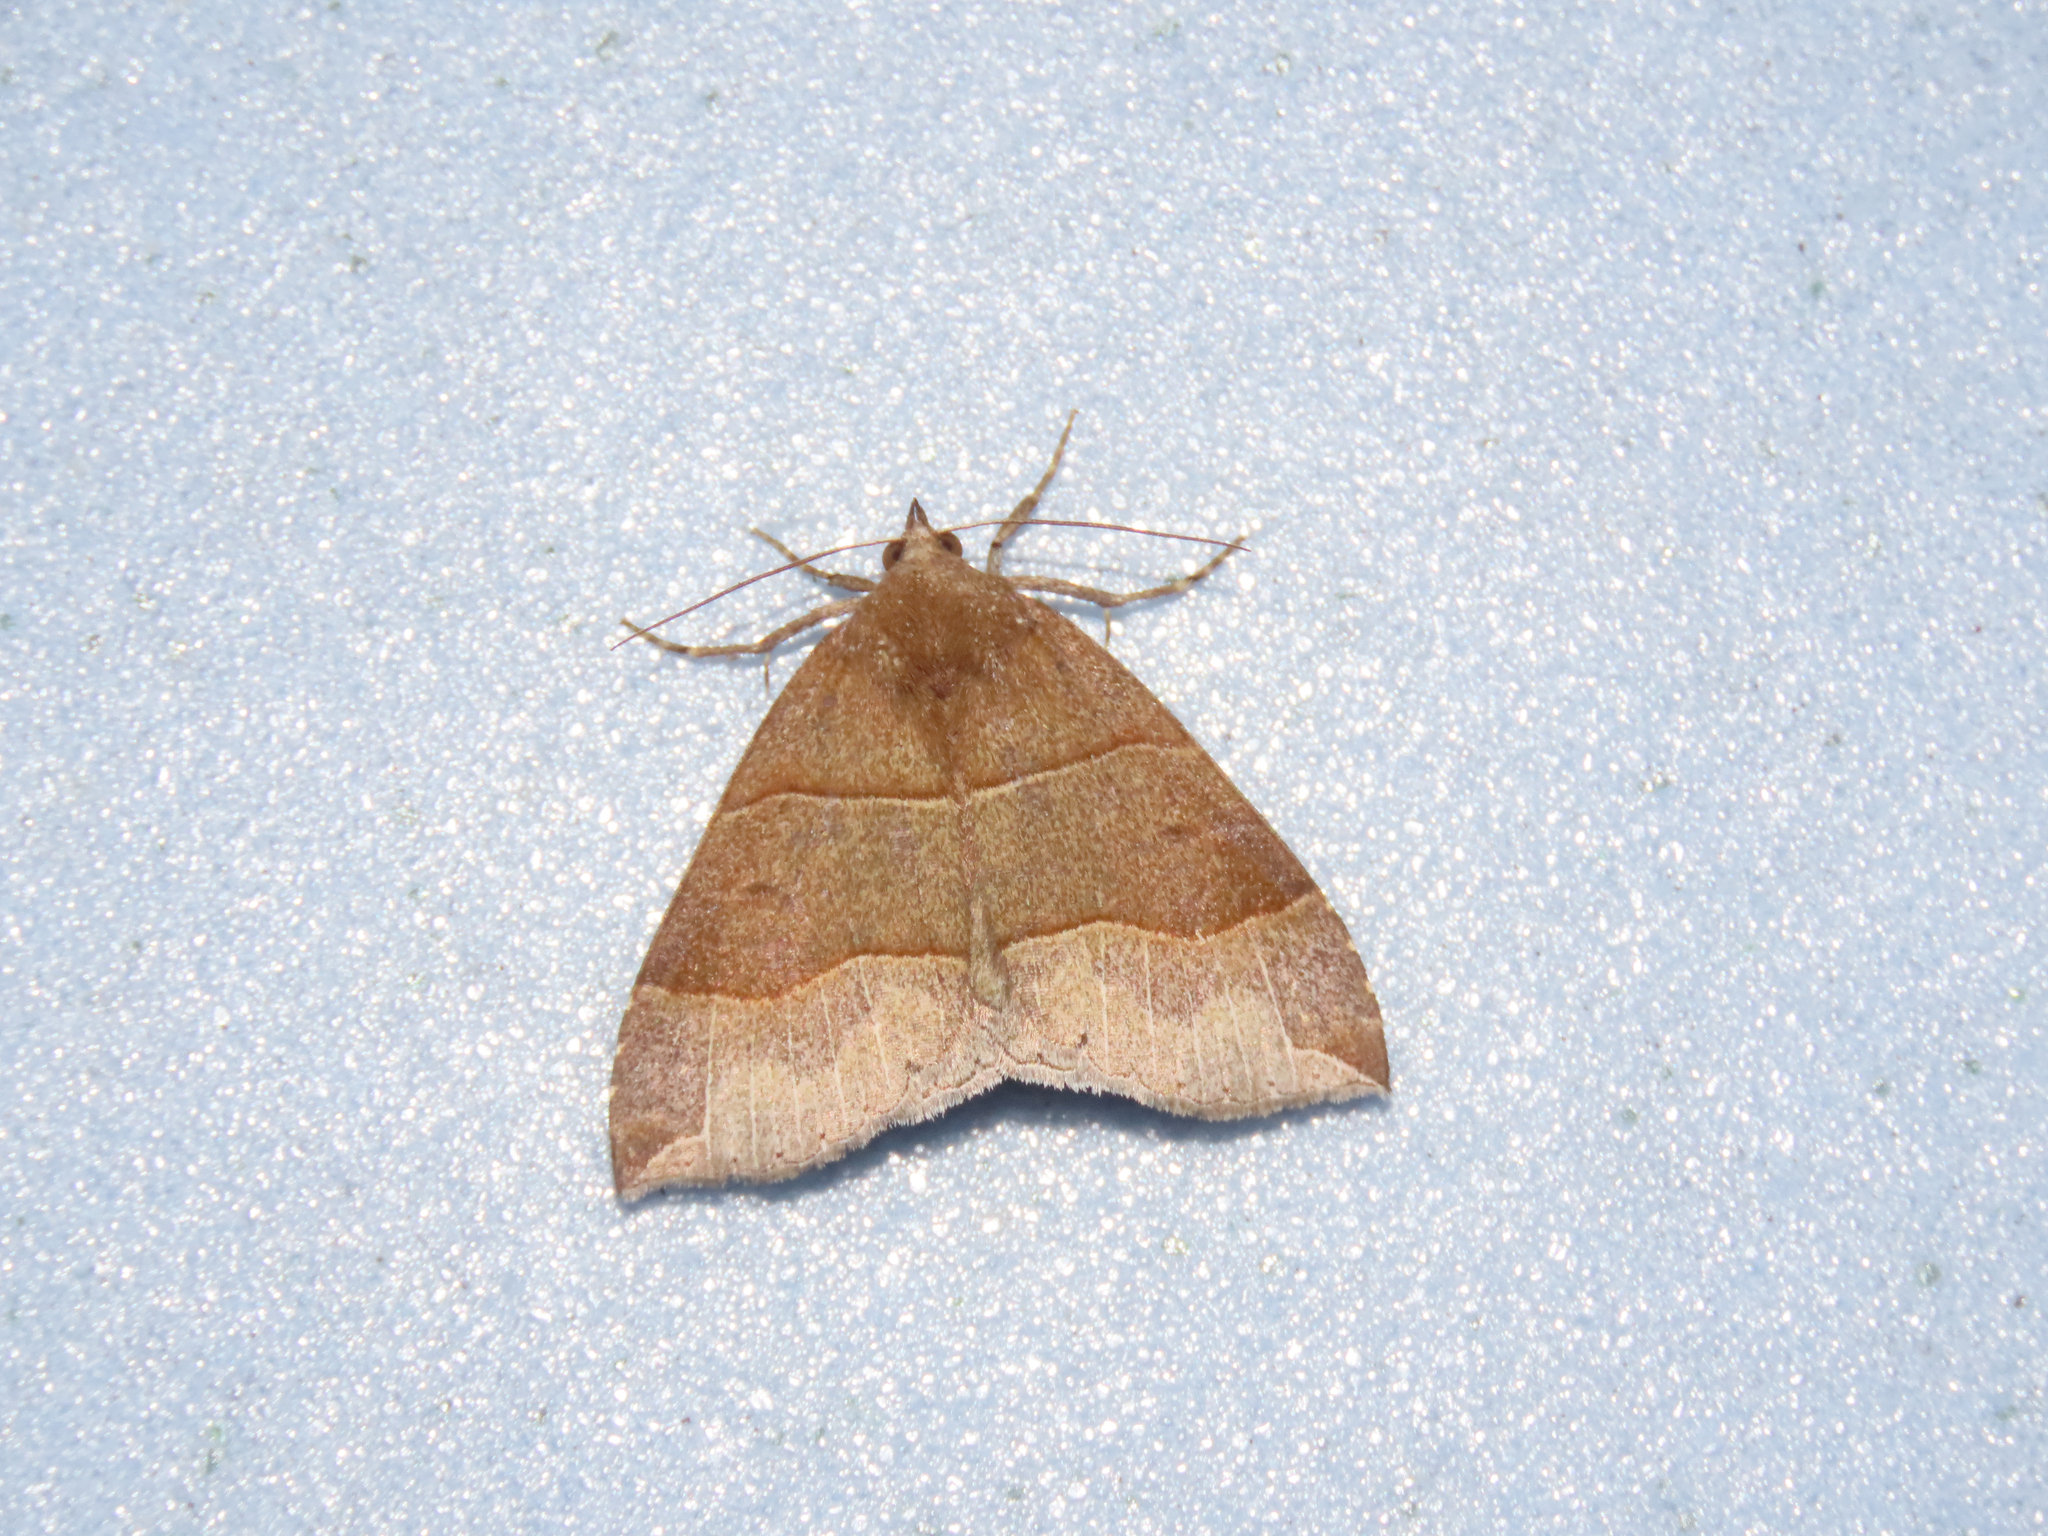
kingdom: Animalia
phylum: Arthropoda
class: Insecta
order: Lepidoptera
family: Erebidae
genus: Parallelia
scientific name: Parallelia bistriaris
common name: Maple looper moth
